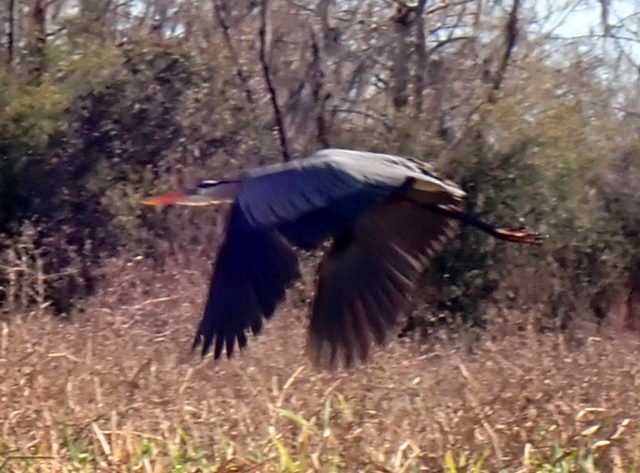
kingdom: Animalia
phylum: Chordata
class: Aves
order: Pelecaniformes
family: Ardeidae
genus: Ardea
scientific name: Ardea herodias
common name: Great blue heron
